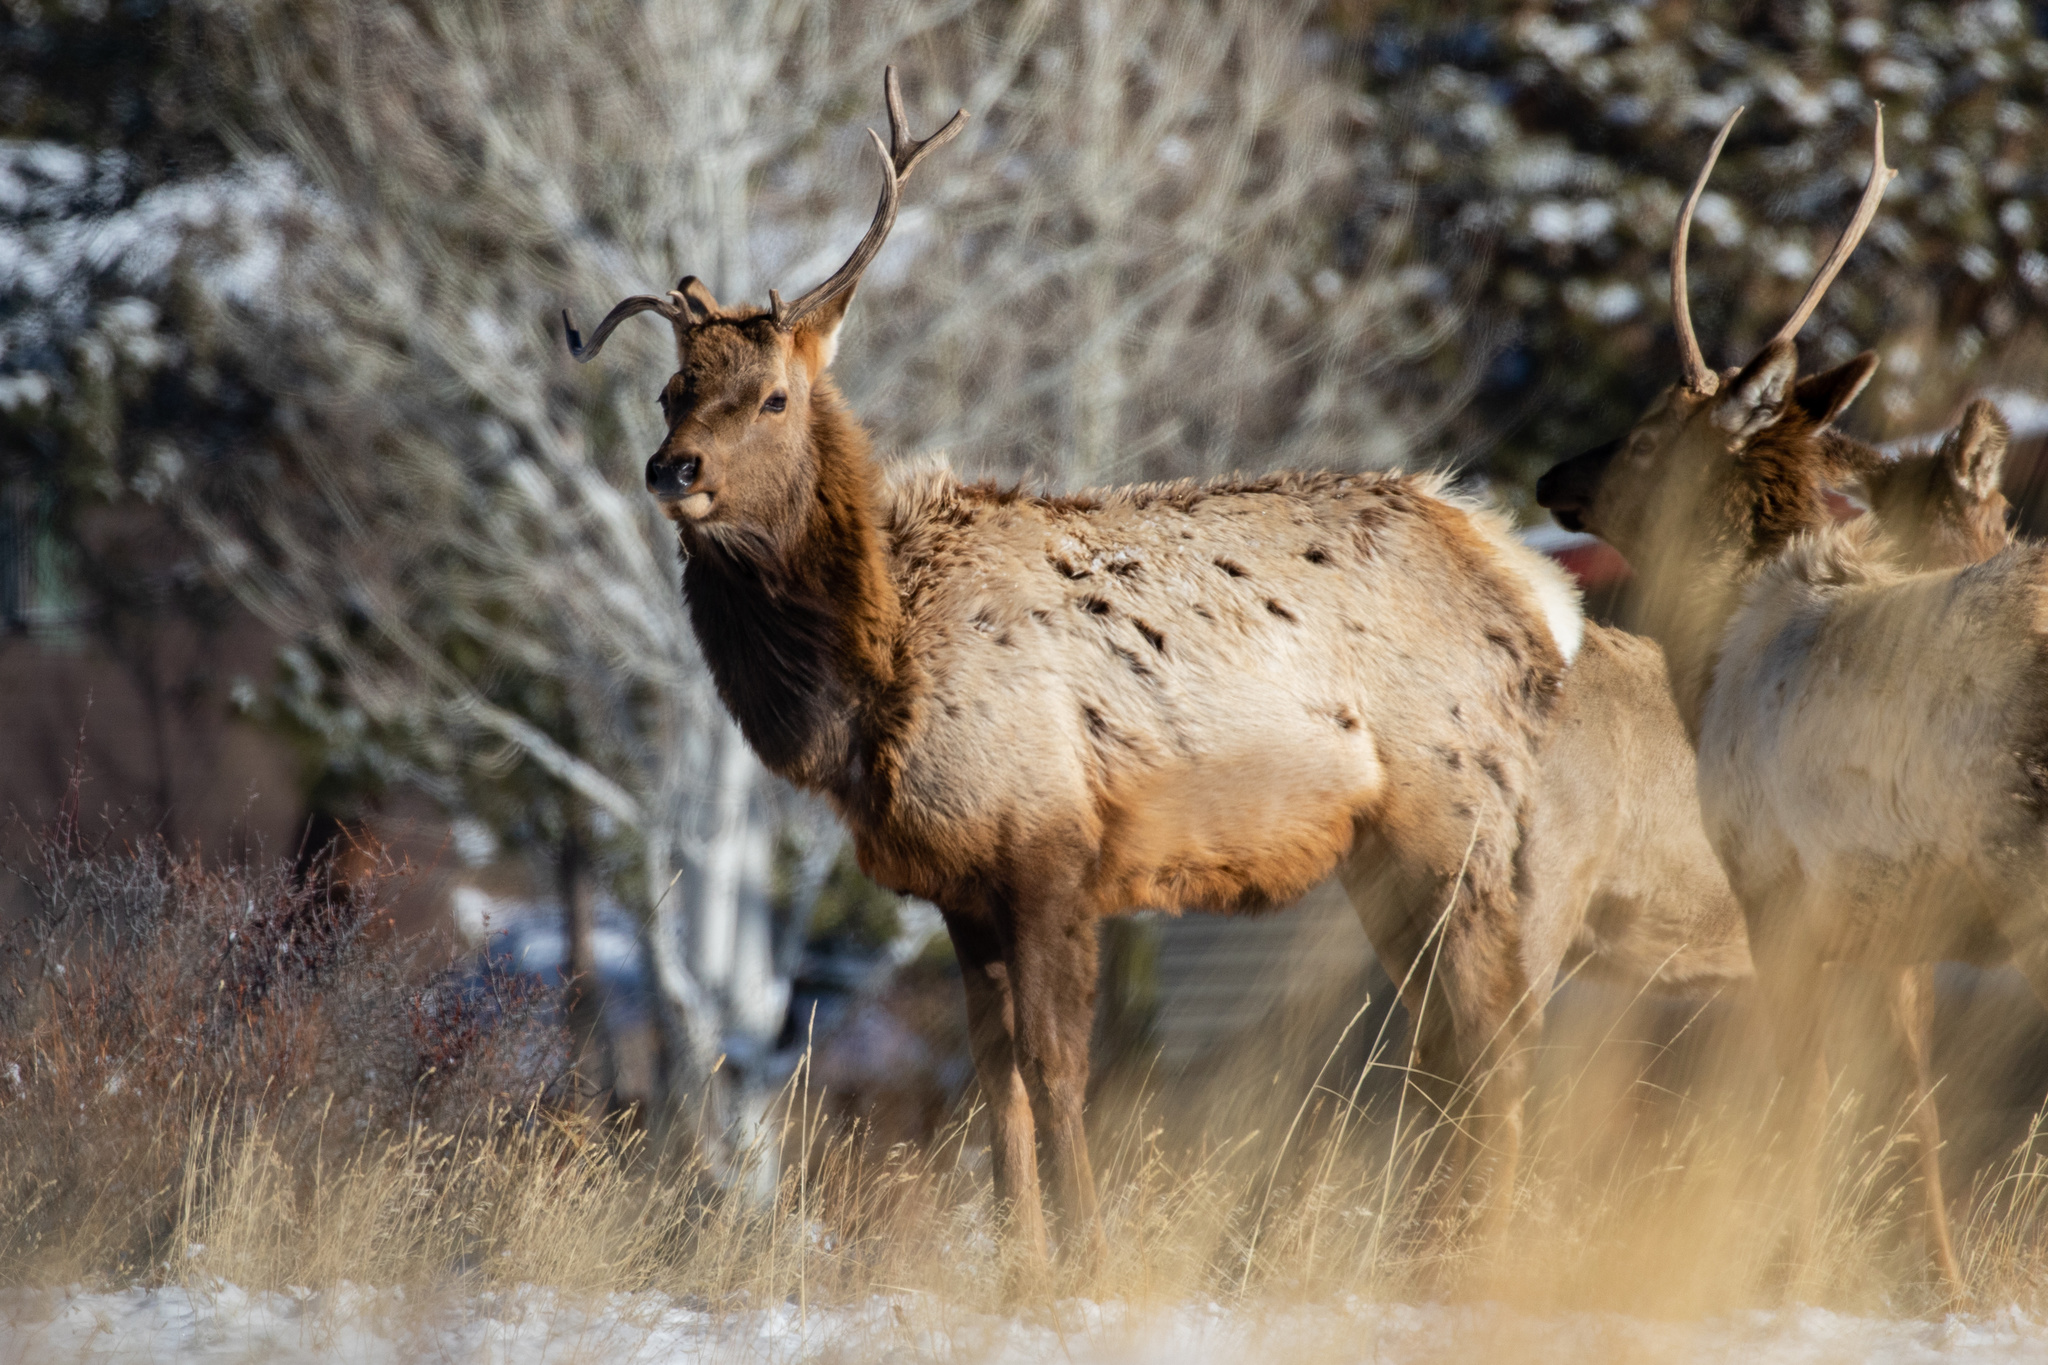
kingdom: Animalia
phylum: Chordata
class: Mammalia
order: Artiodactyla
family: Cervidae
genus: Cervus
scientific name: Cervus elaphus
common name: Red deer
